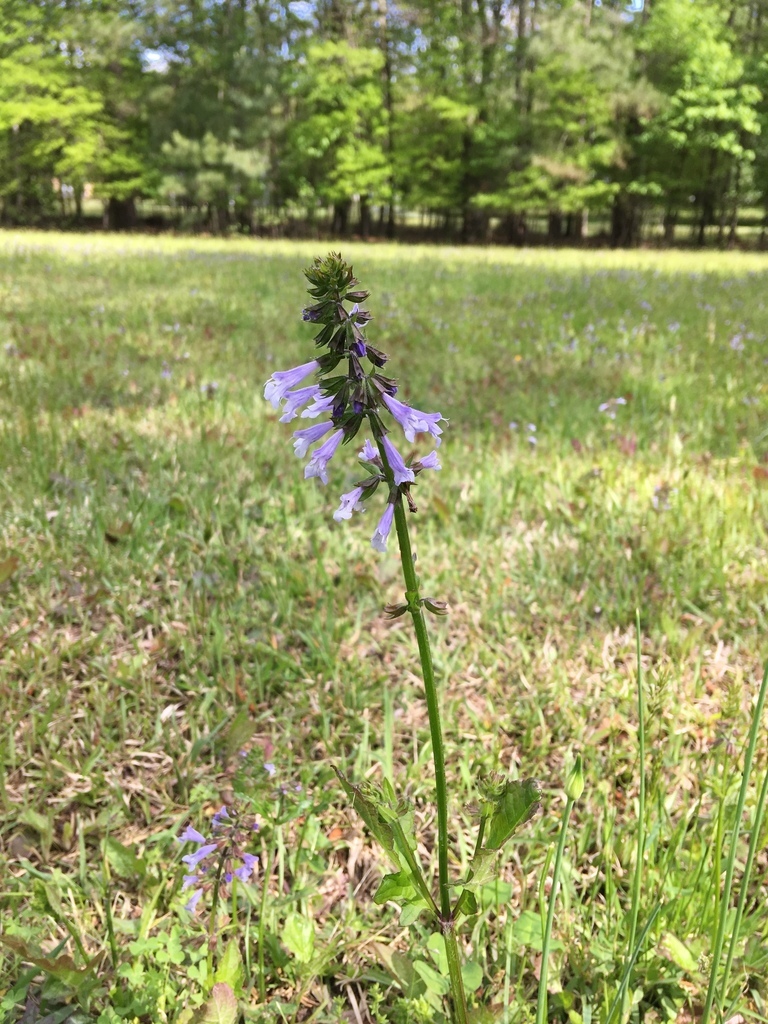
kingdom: Plantae
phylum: Tracheophyta
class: Magnoliopsida
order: Lamiales
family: Lamiaceae
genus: Salvia
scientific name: Salvia lyrata
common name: Cancerweed
